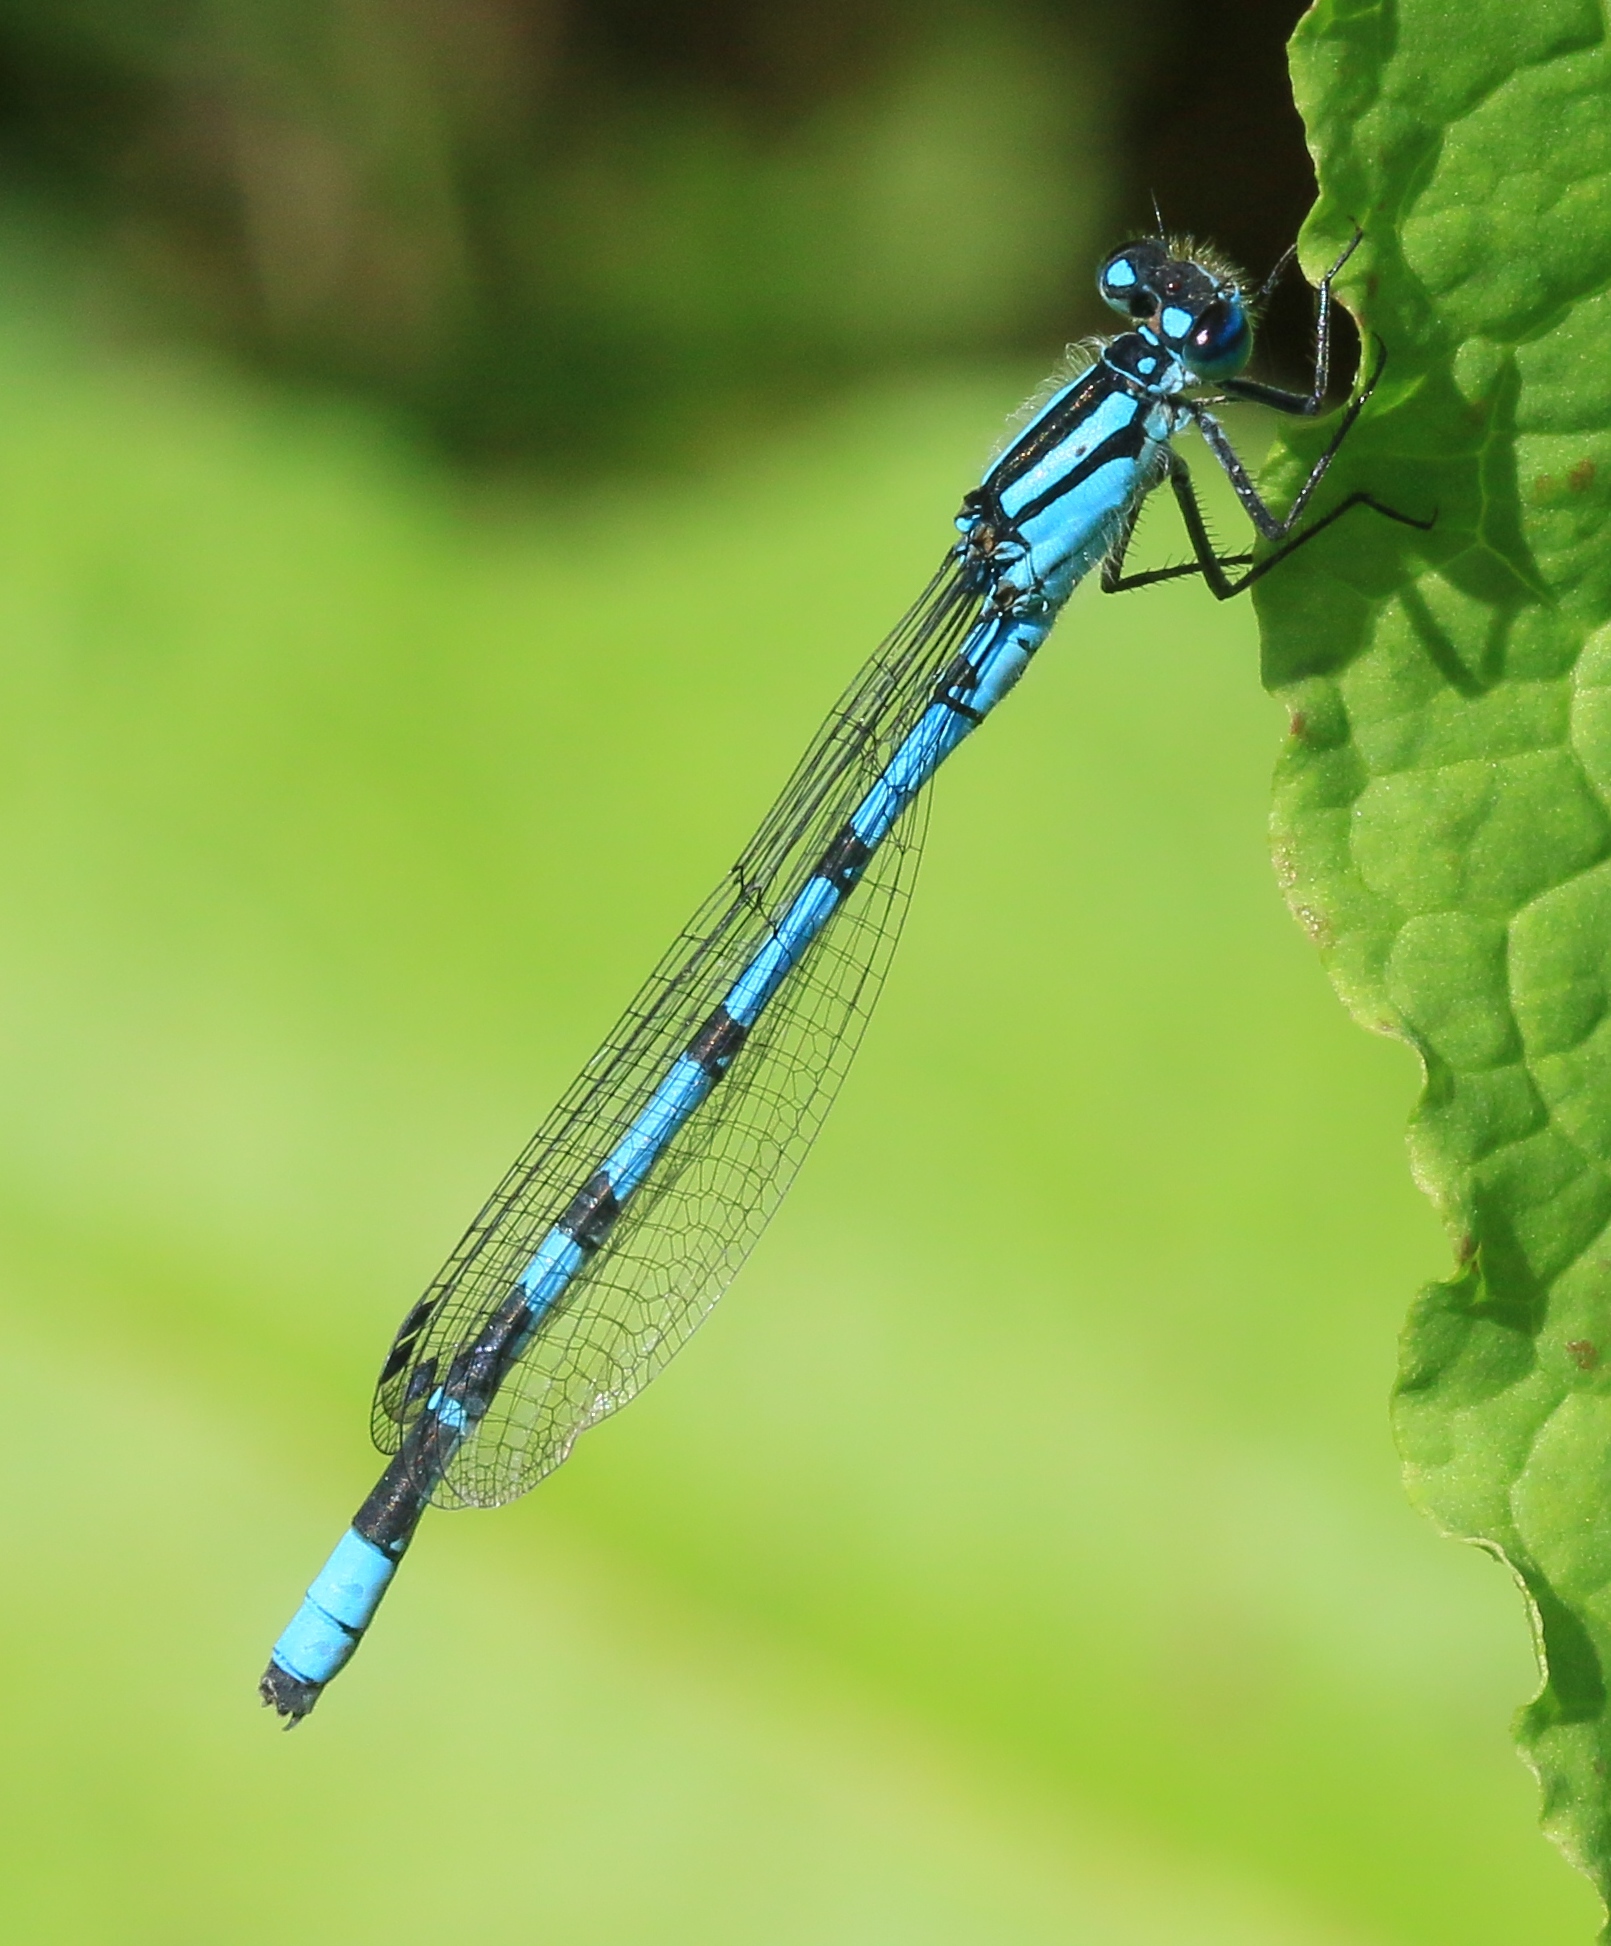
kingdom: Animalia
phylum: Arthropoda
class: Insecta
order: Odonata
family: Coenagrionidae
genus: Enallagma
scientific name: Enallagma cyathigerum
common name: Common blue damselfly
